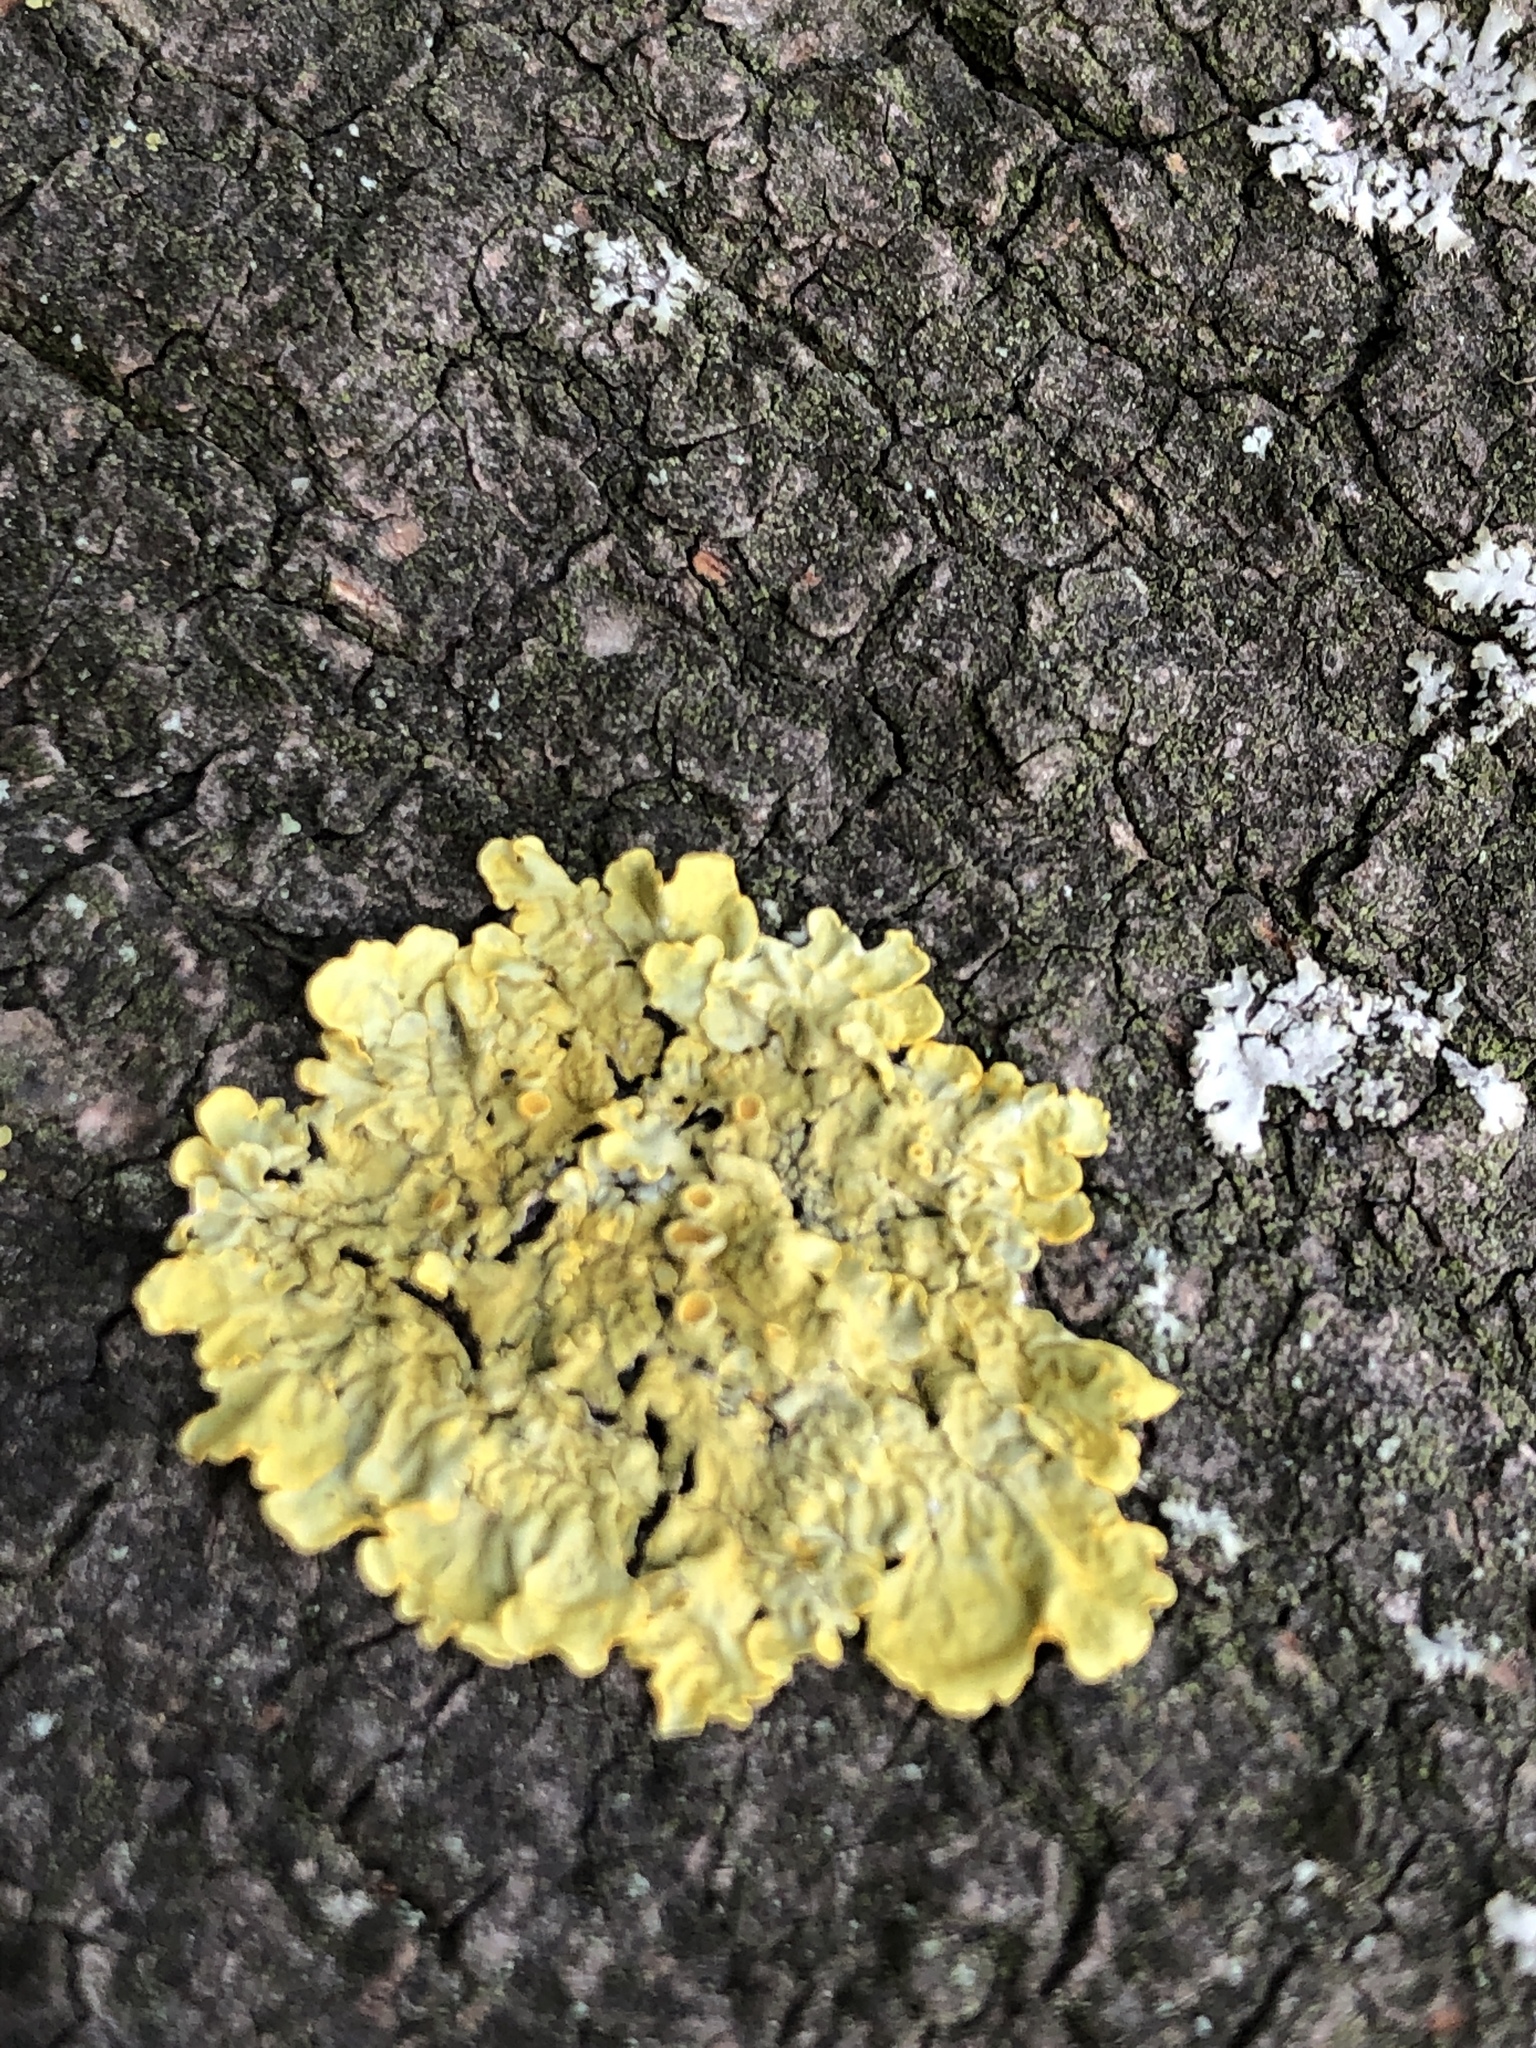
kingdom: Fungi
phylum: Ascomycota
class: Lecanoromycetes
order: Teloschistales
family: Teloschistaceae
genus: Xanthoria
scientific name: Xanthoria parietina
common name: Common orange lichen
